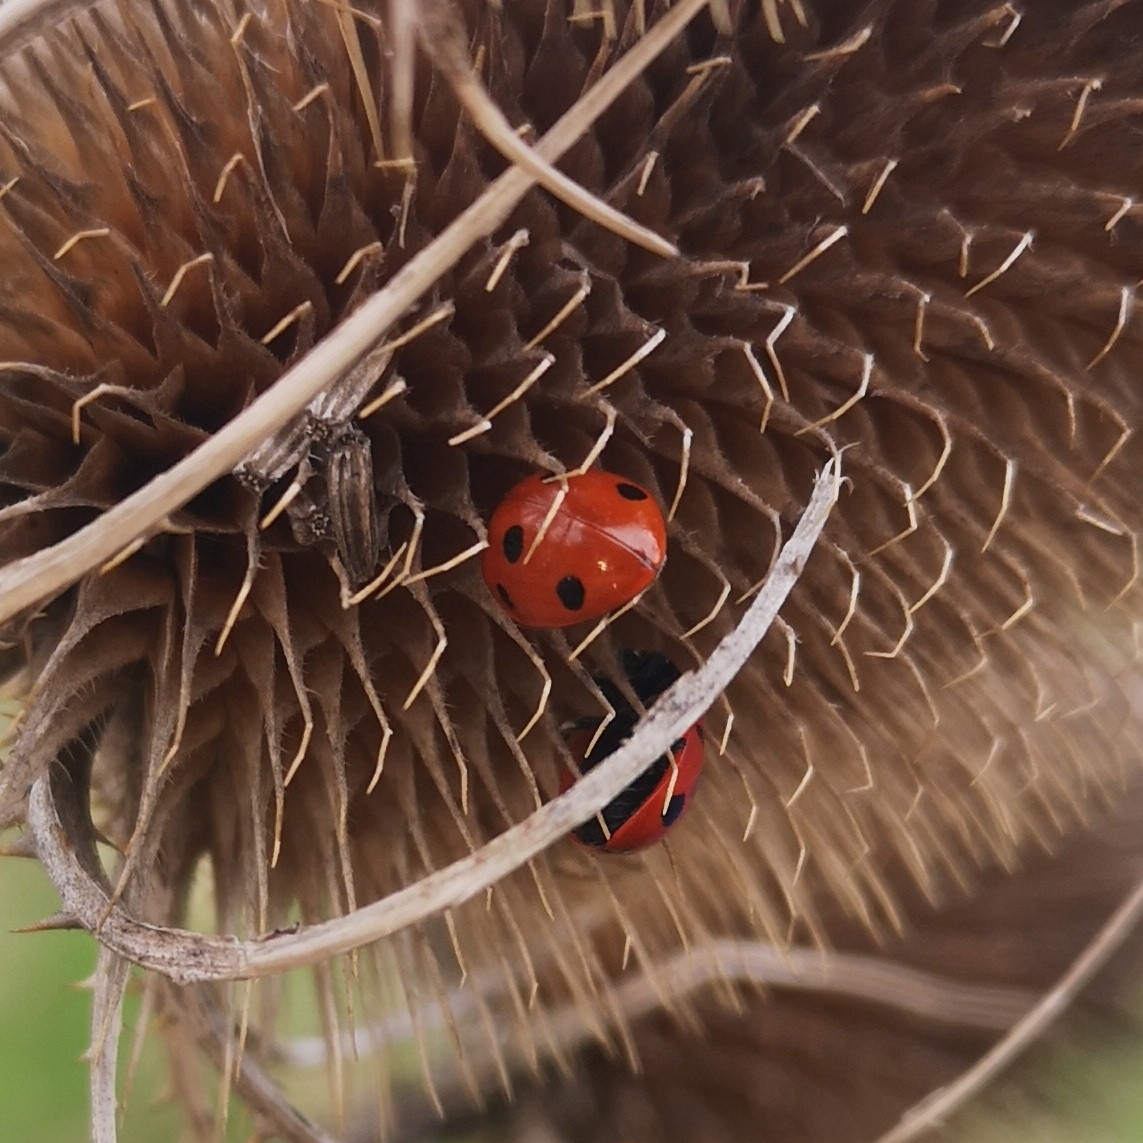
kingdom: Animalia
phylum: Arthropoda
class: Insecta
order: Coleoptera
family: Coccinellidae
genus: Coccinella
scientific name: Coccinella septempunctata
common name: Sevenspotted lady beetle
